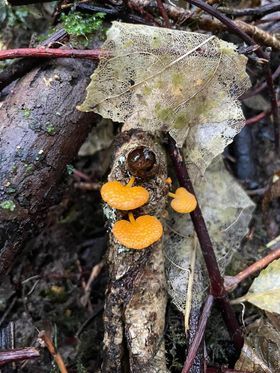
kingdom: Fungi
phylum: Basidiomycota
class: Agaricomycetes
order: Agaricales
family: Mycenaceae
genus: Favolaschia
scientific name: Favolaschia claudopus
